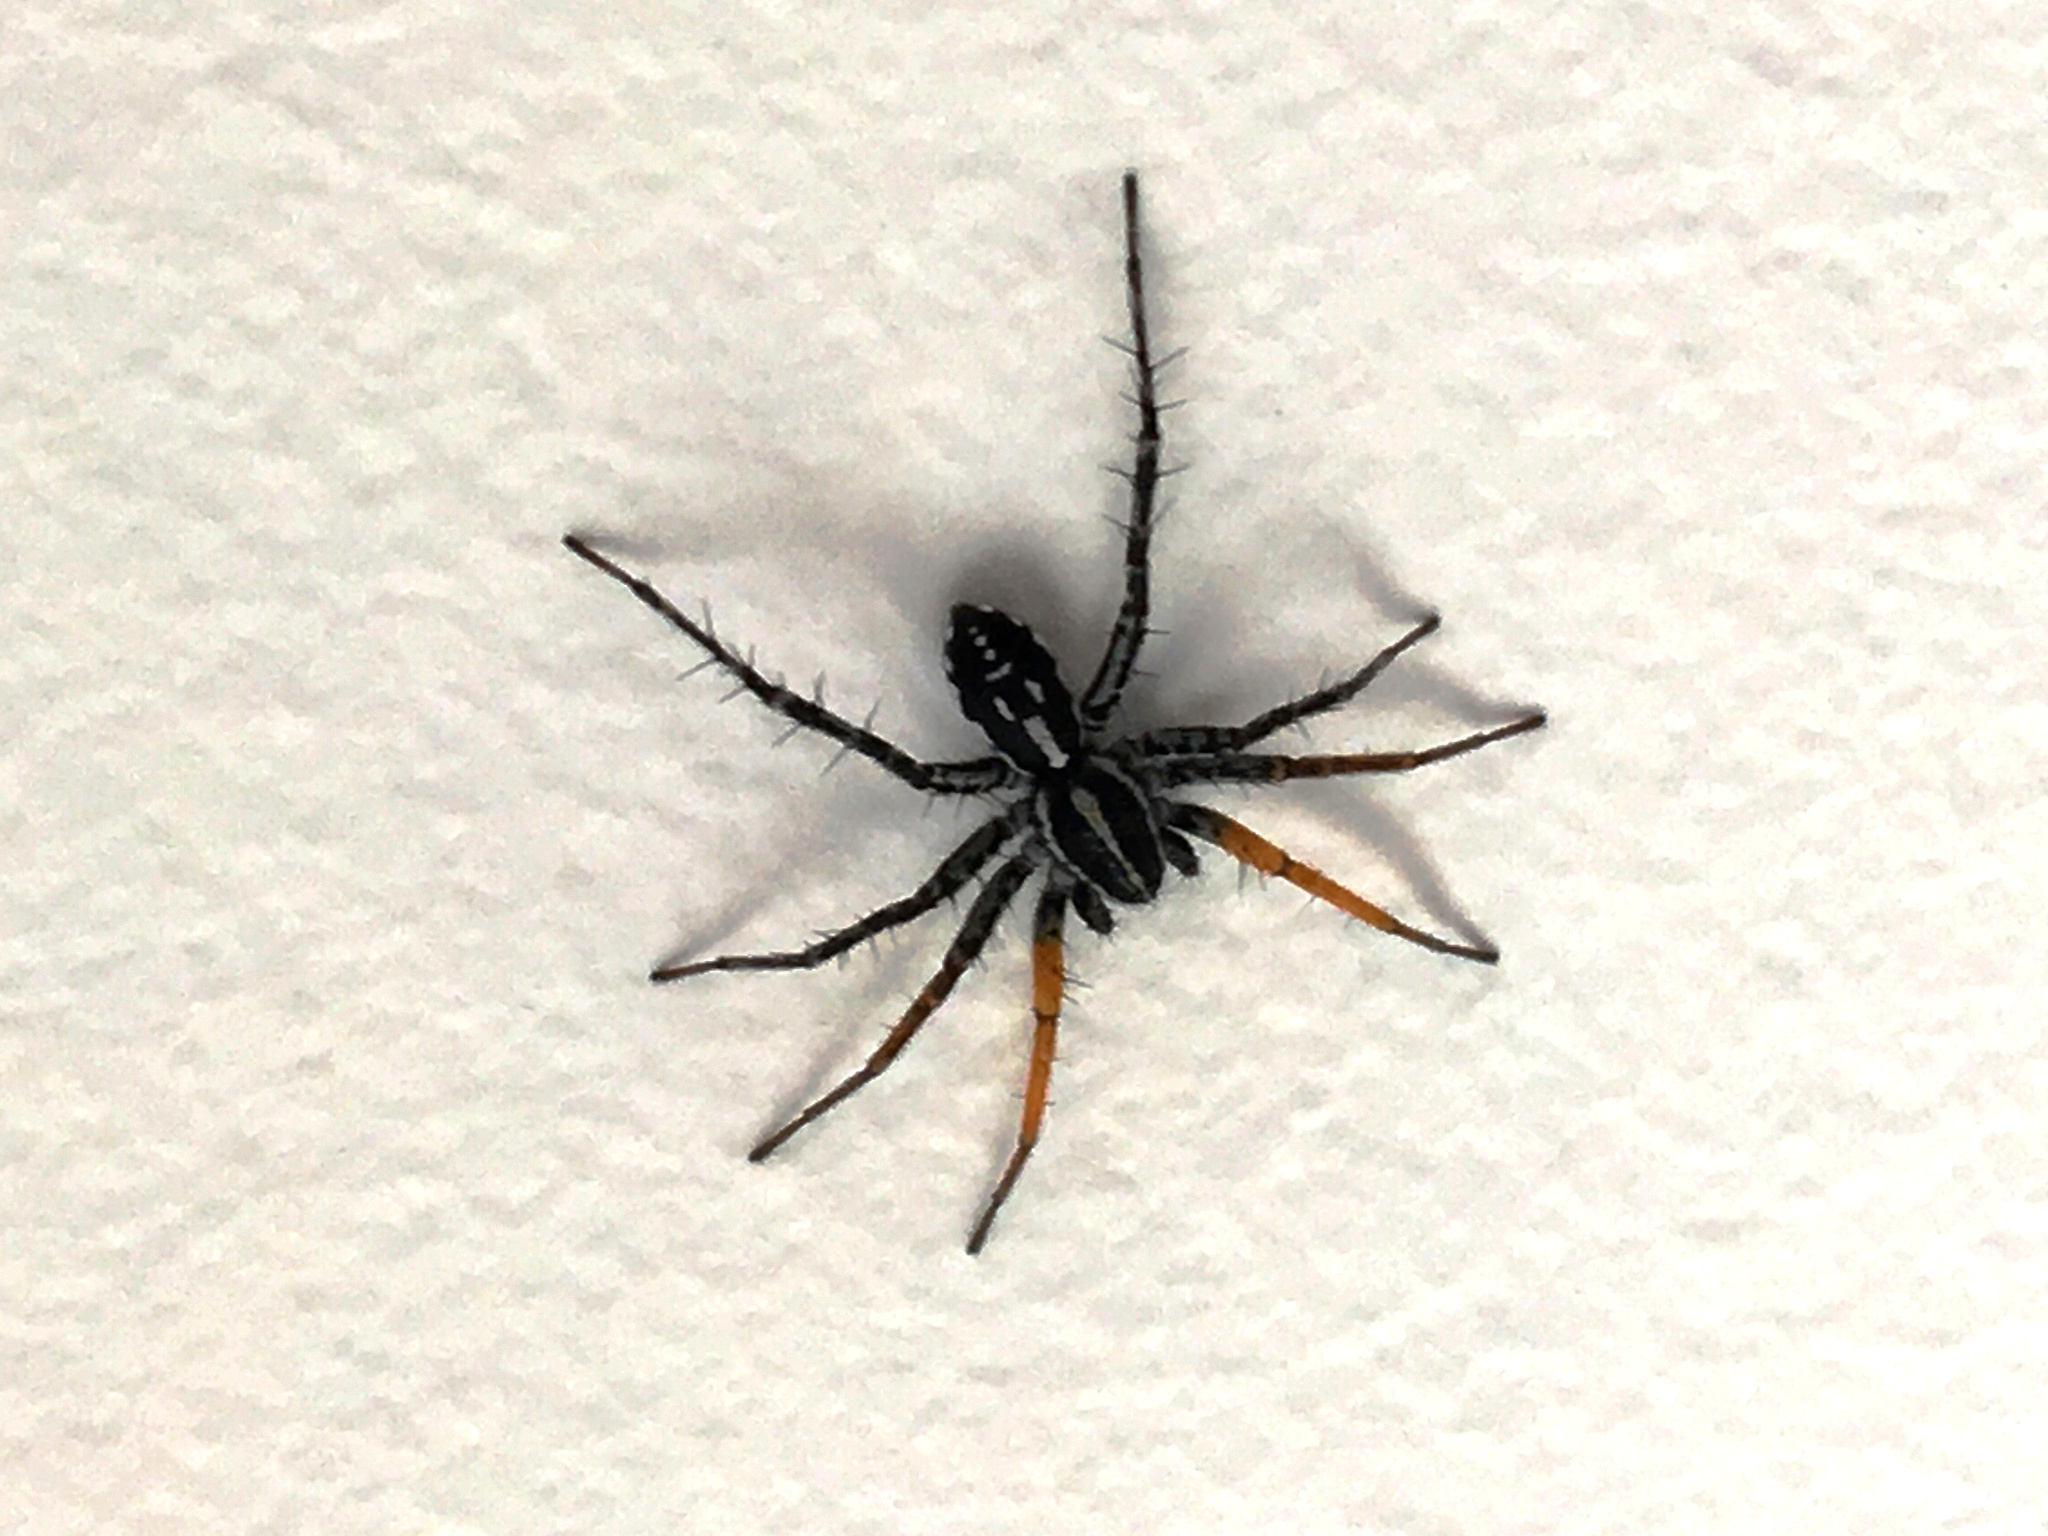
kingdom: Animalia
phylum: Arthropoda
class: Arachnida
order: Araneae
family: Corinnidae
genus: Nyssus
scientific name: Nyssus coloripes
